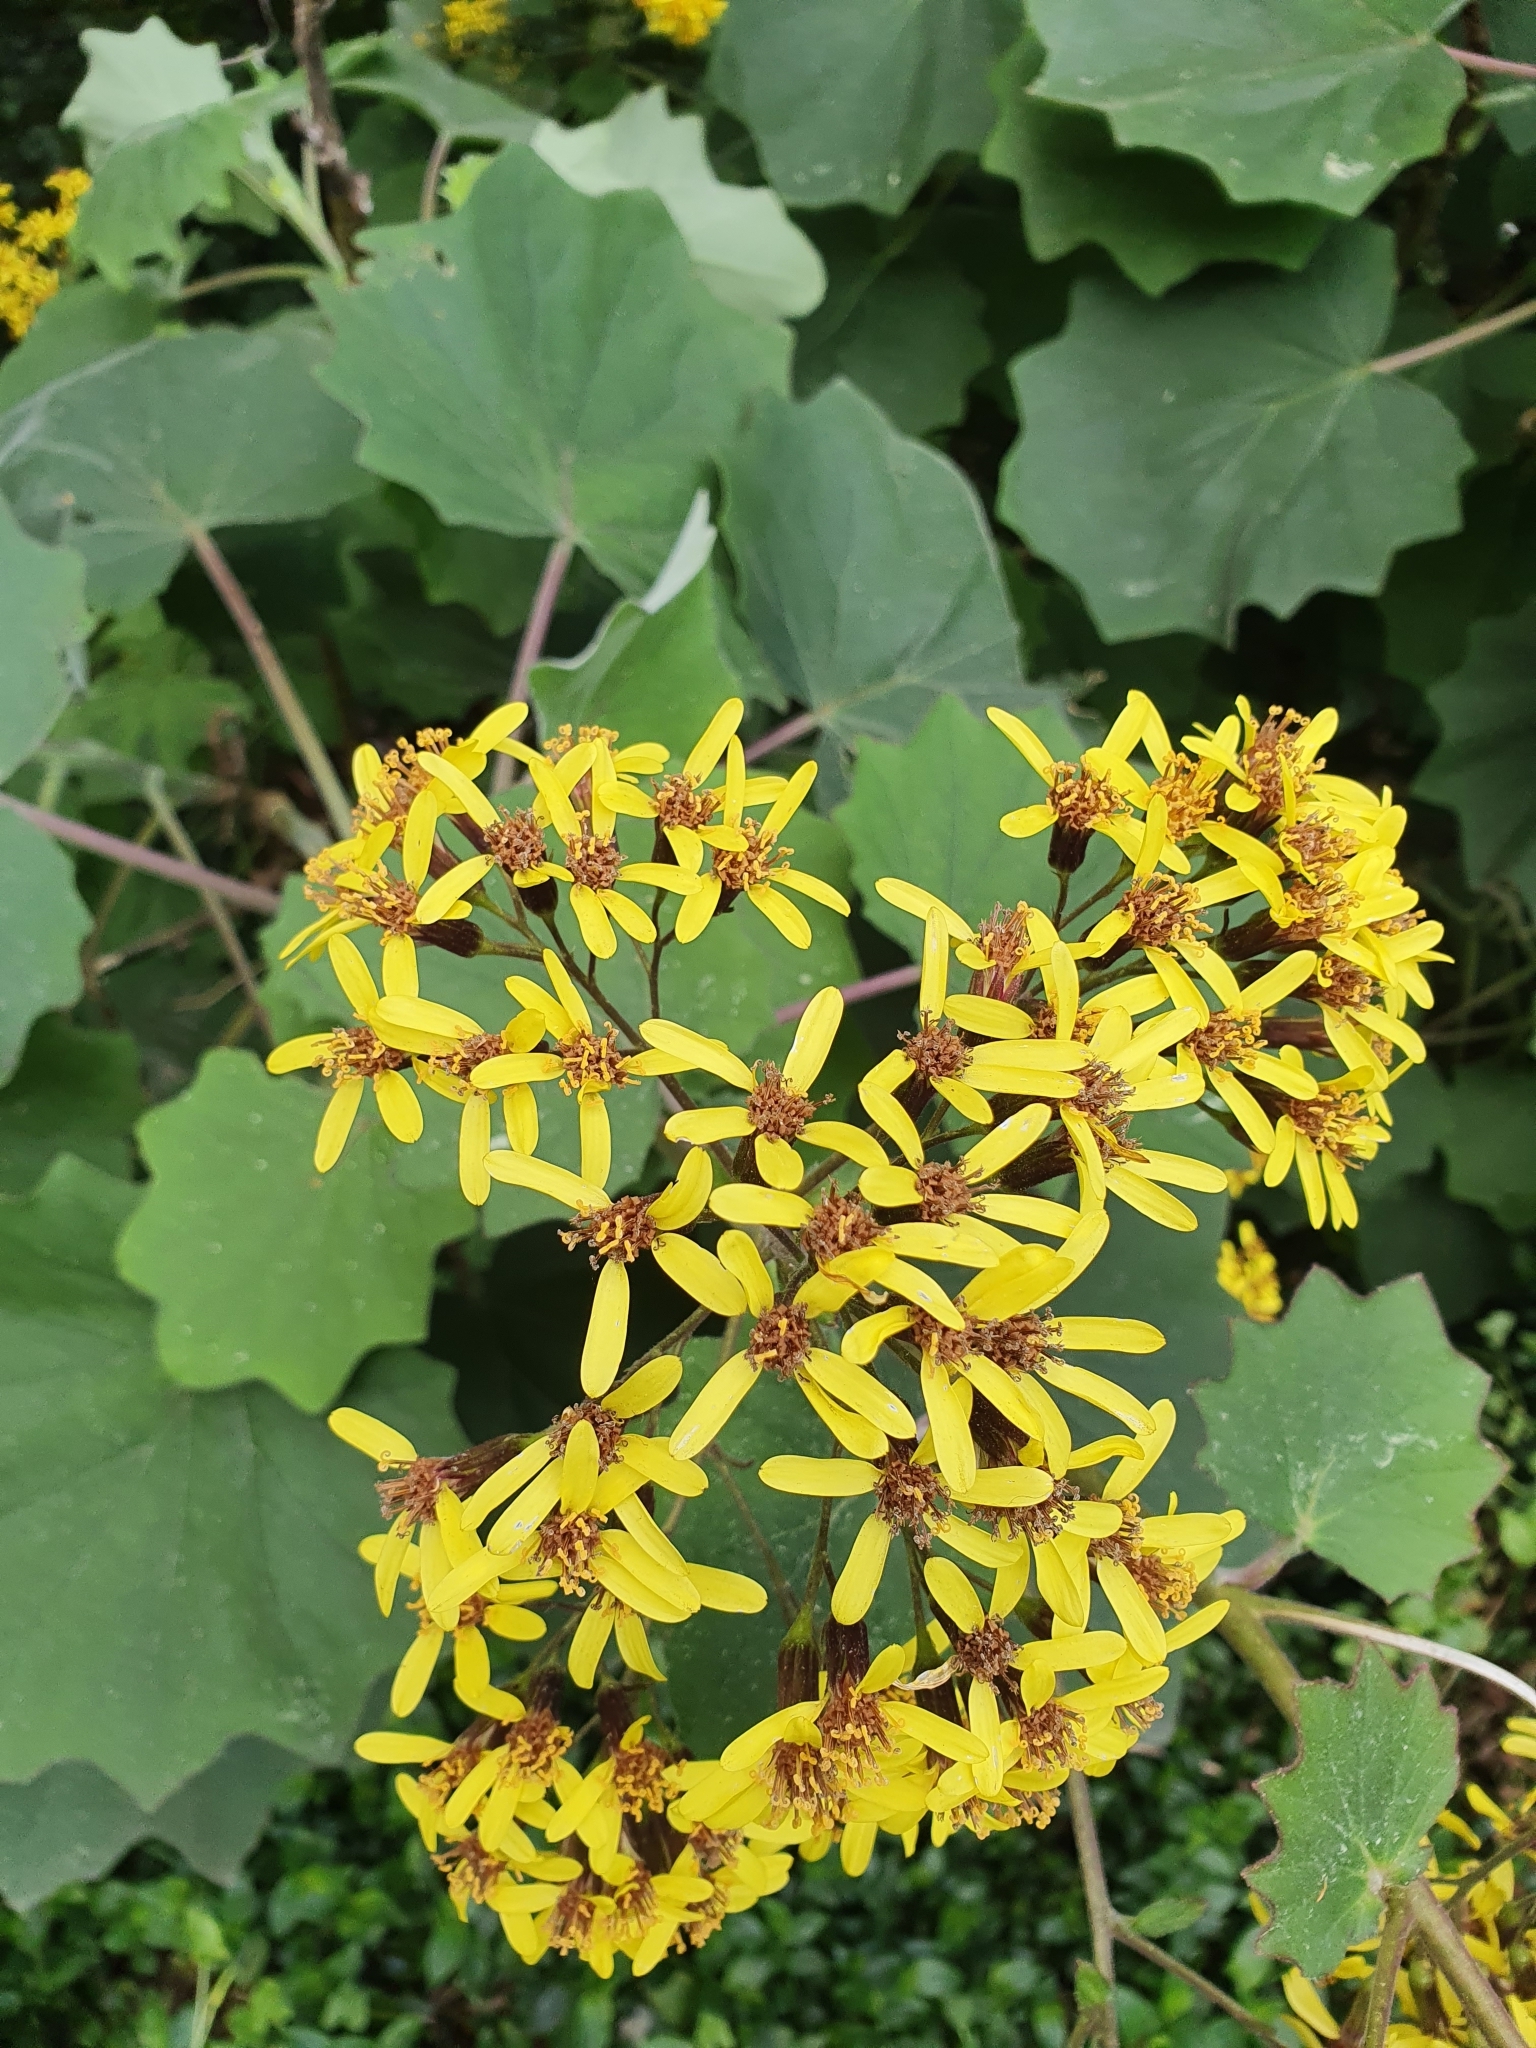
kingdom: Plantae
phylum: Tracheophyta
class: Magnoliopsida
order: Asterales
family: Asteraceae
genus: Roldana
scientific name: Roldana petasitis
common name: California-geranium
